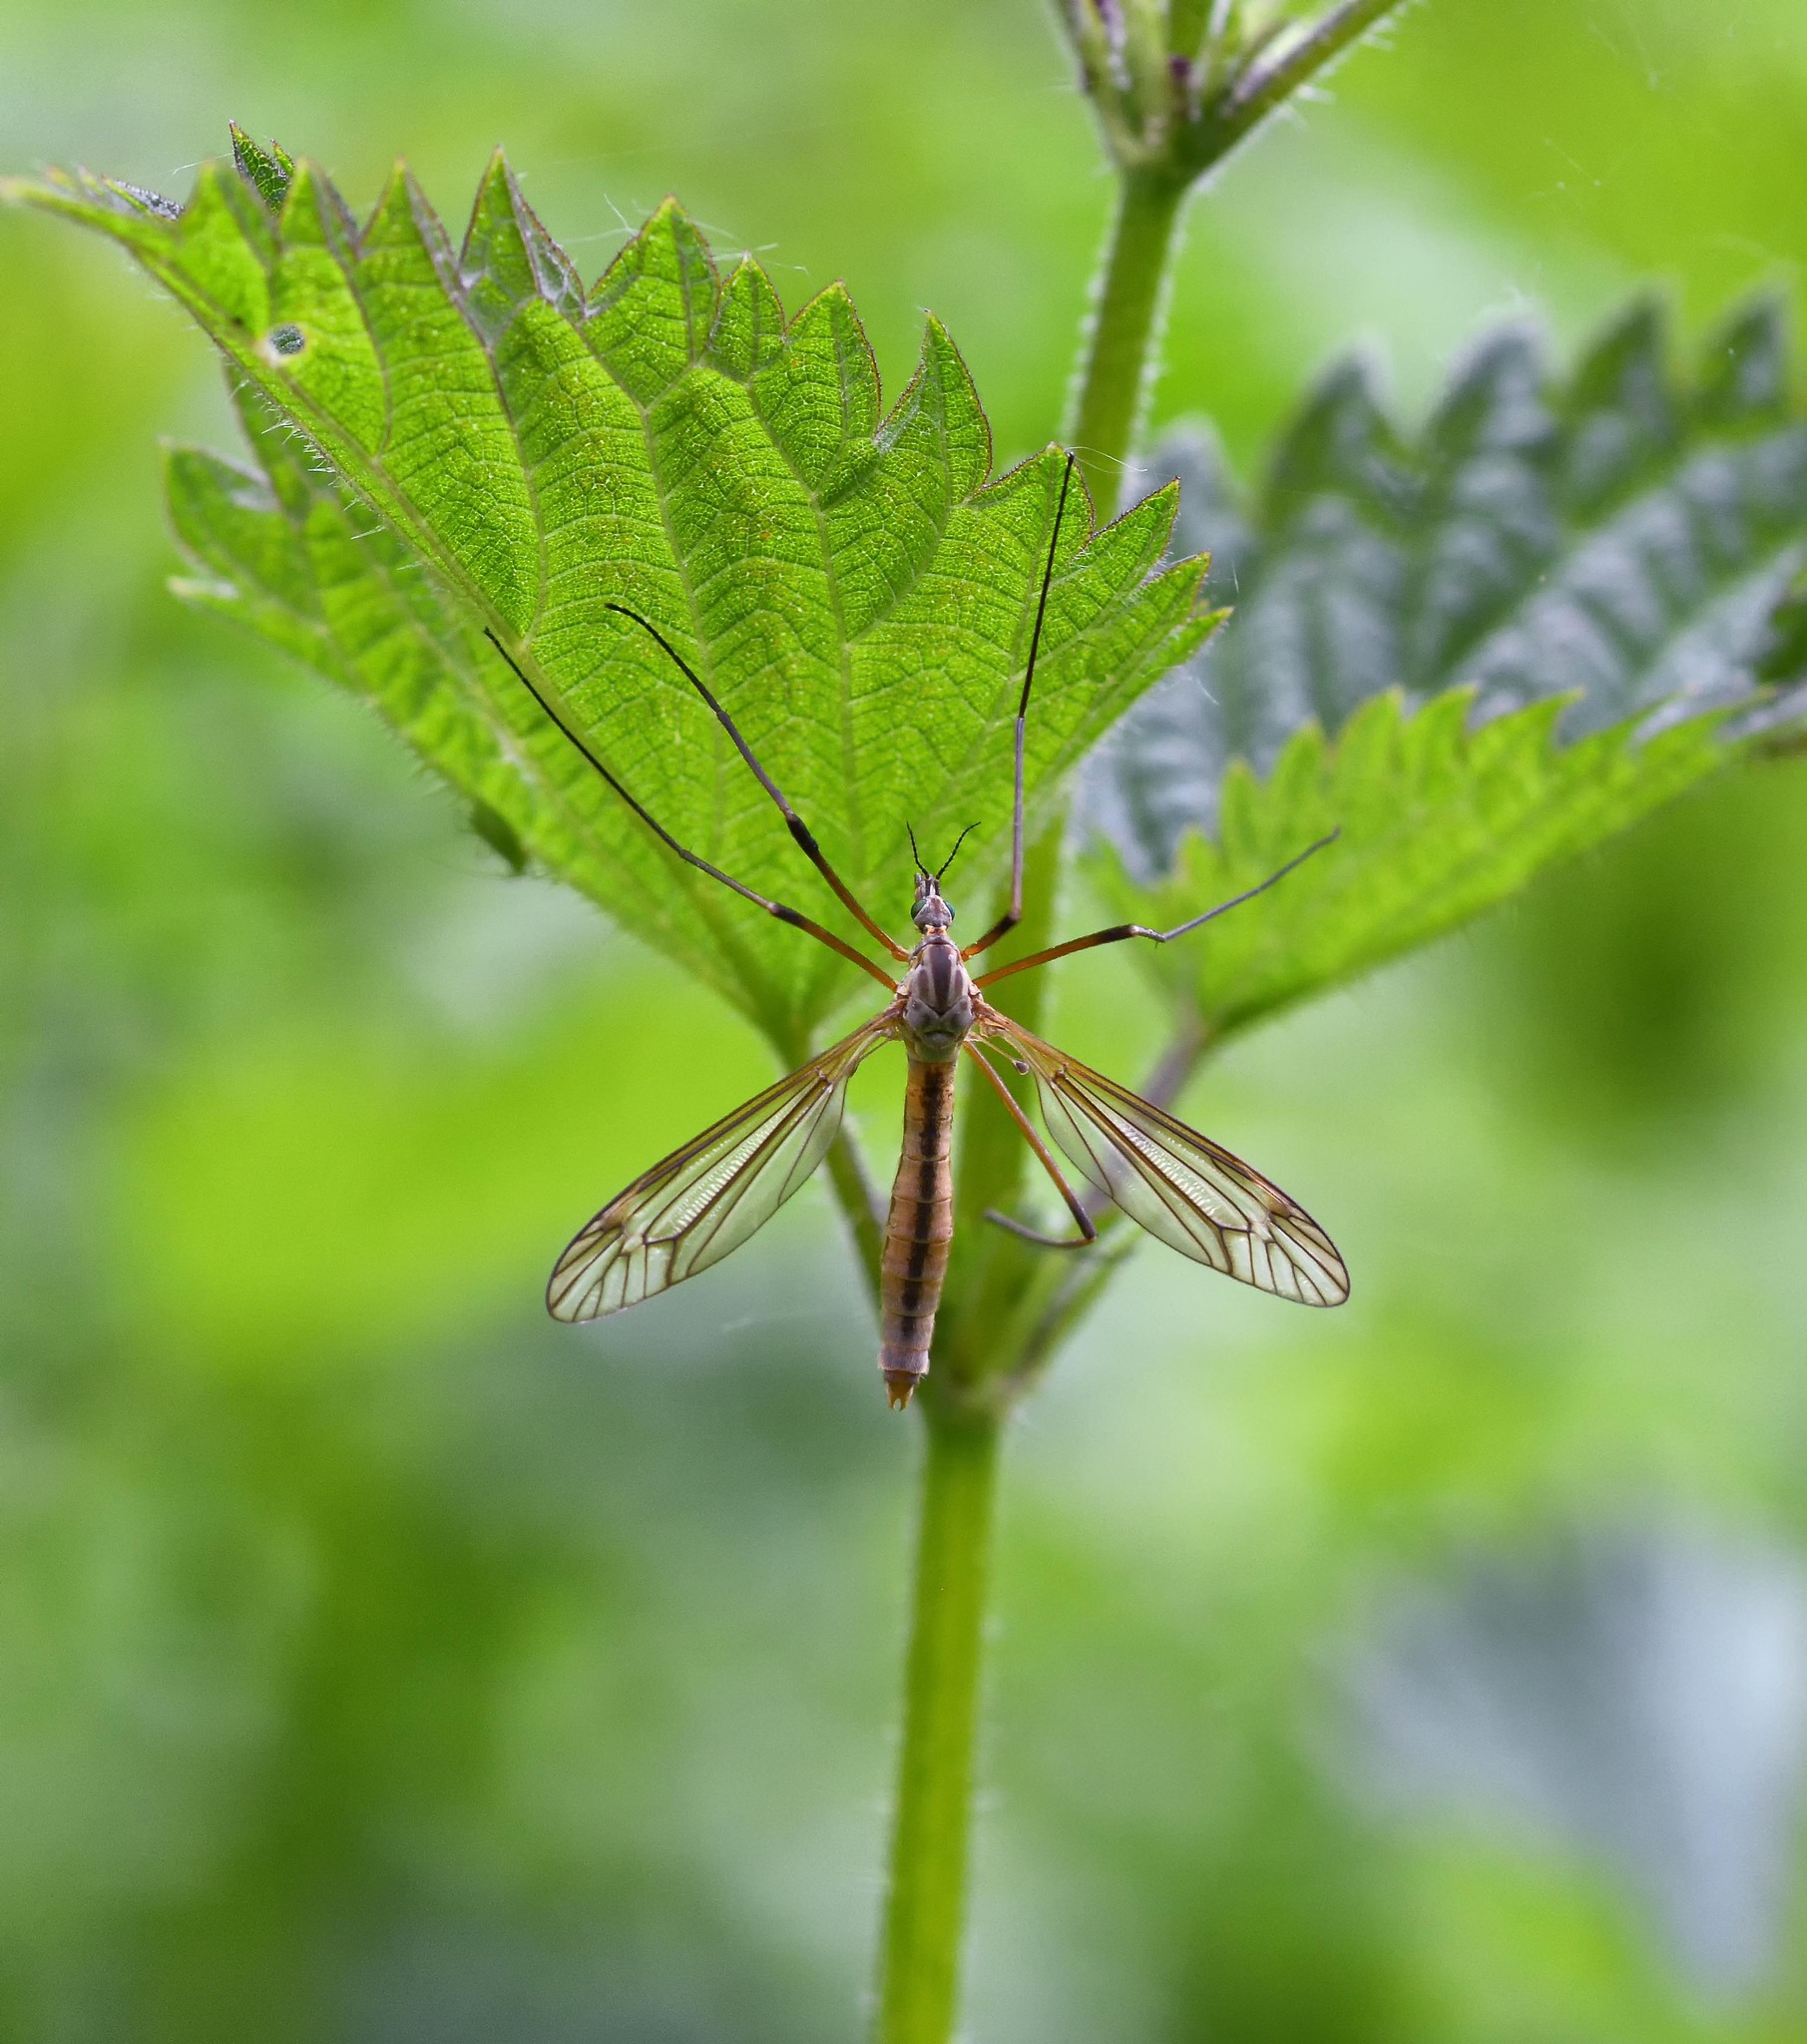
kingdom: Animalia
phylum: Arthropoda
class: Insecta
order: Diptera
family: Tipulidae
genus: Tipula
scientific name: Tipula vernalis
